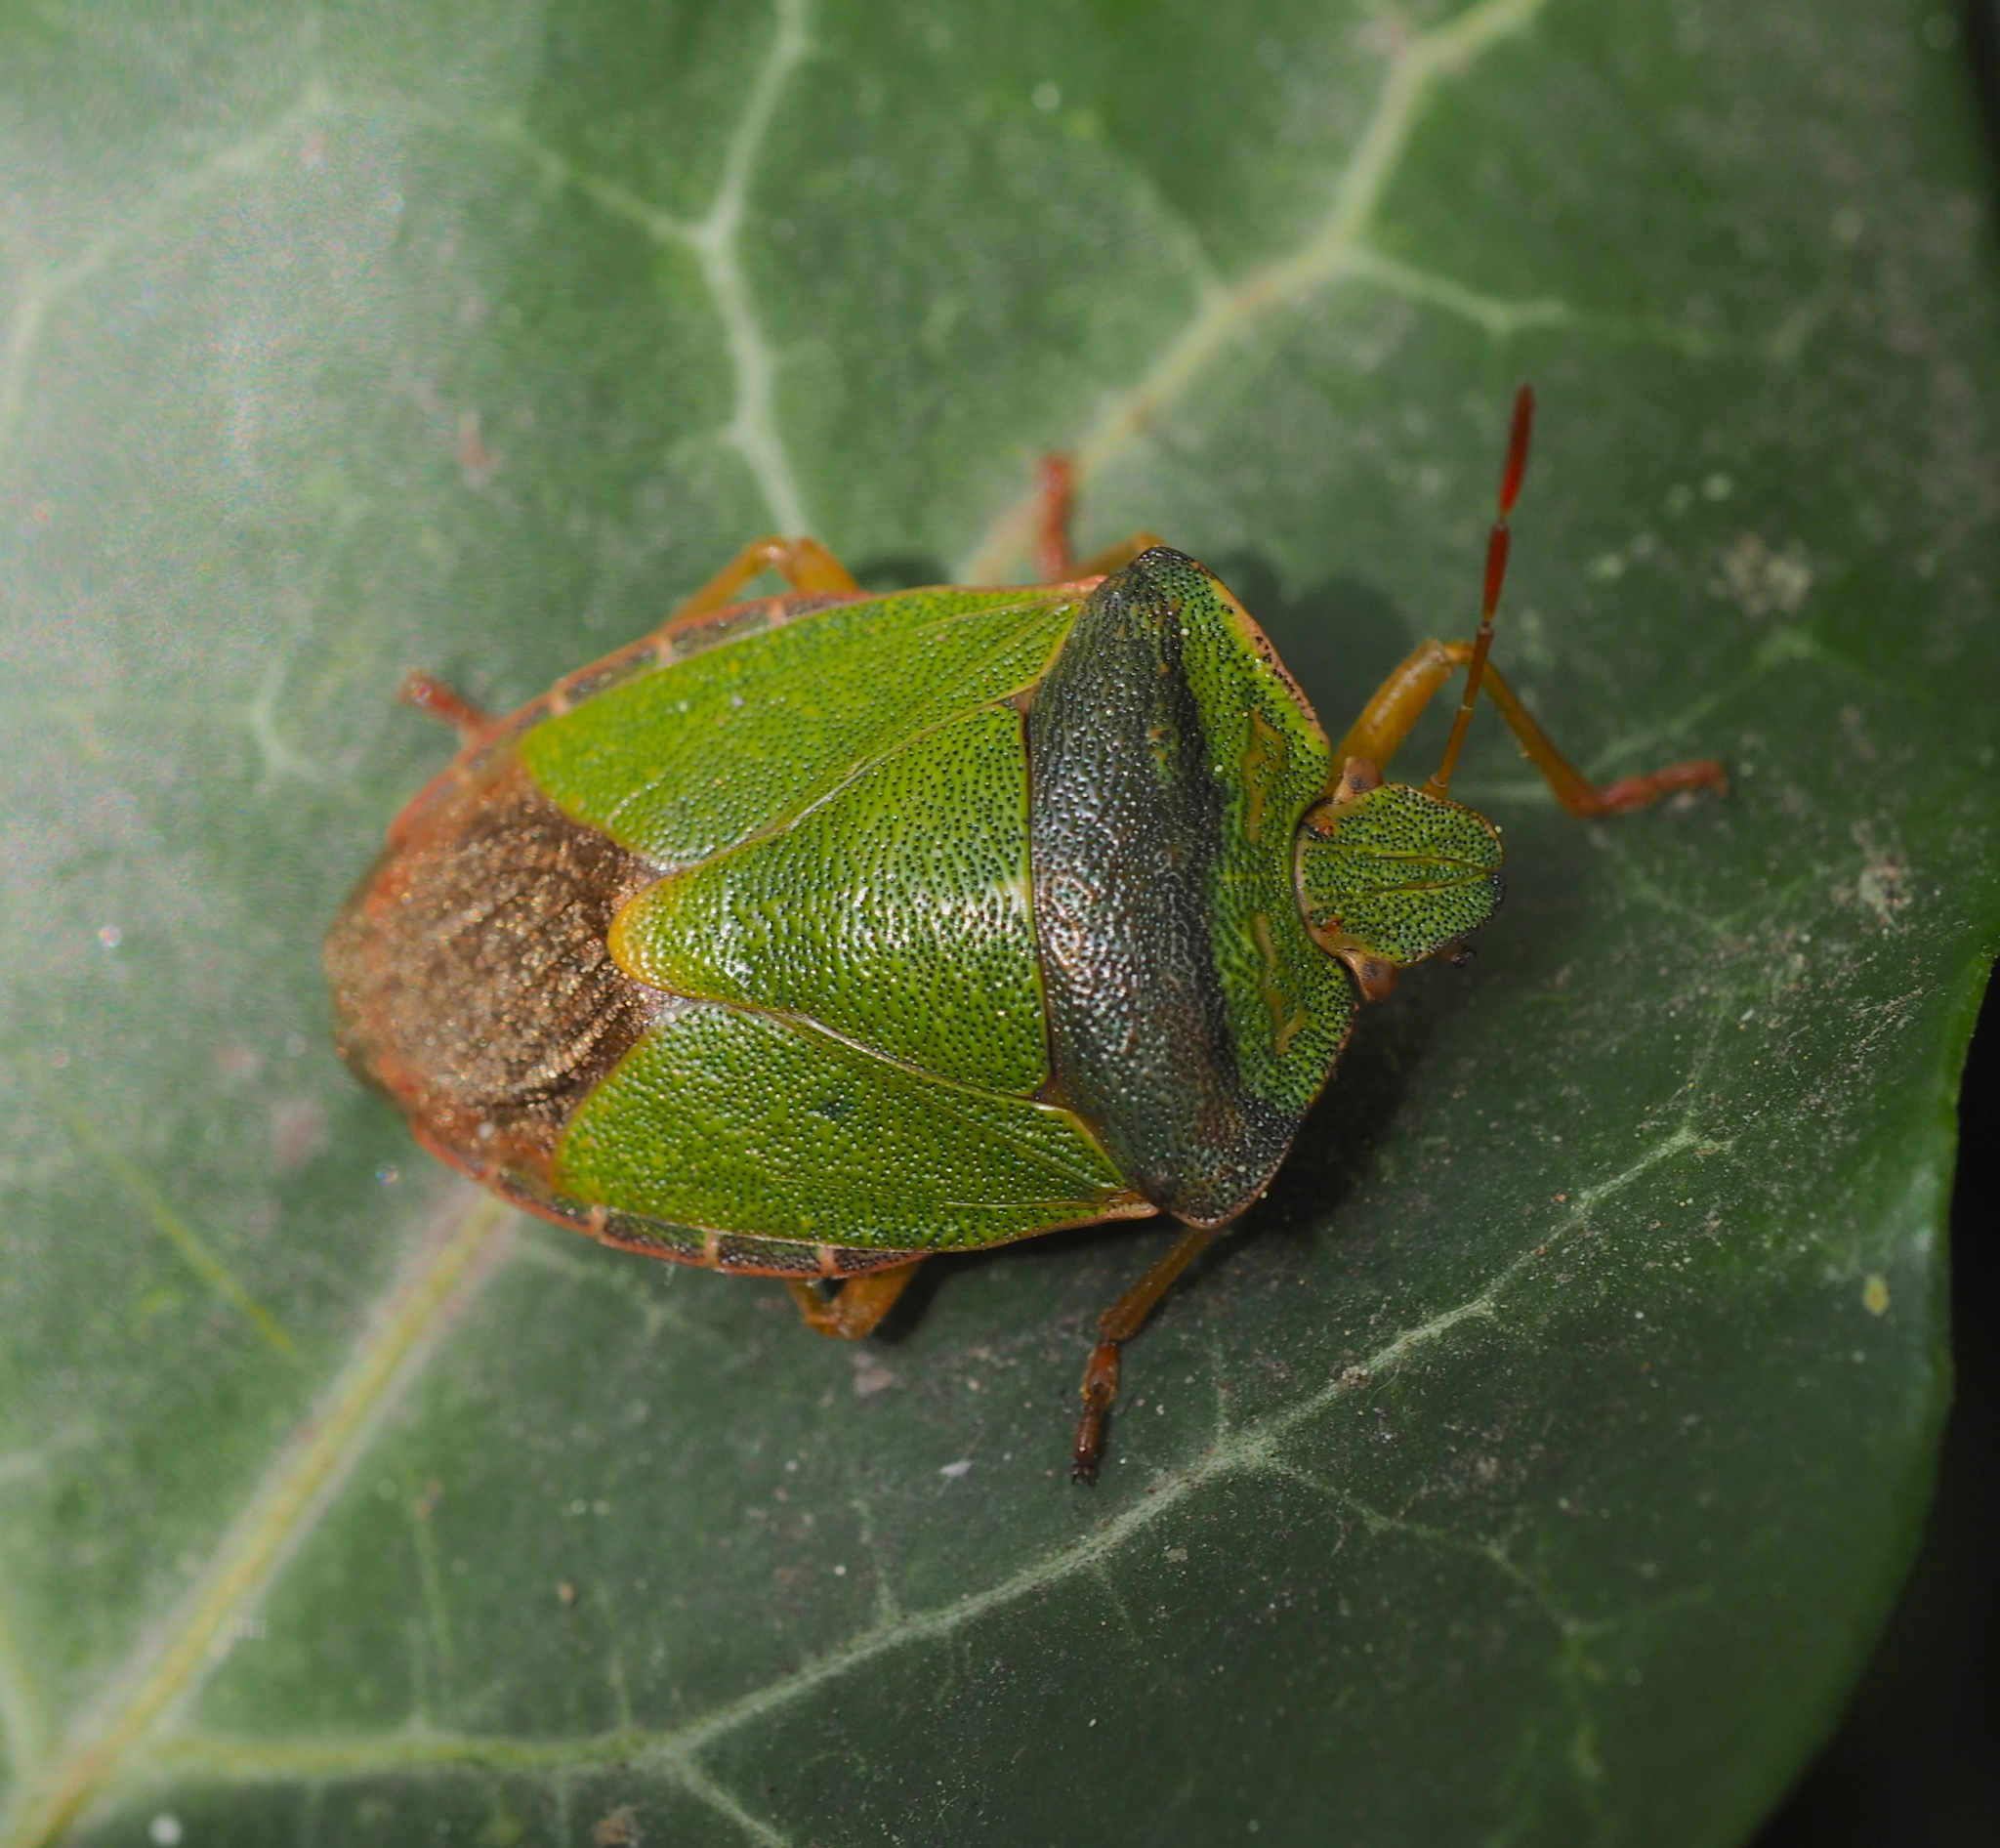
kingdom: Animalia
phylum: Arthropoda
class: Insecta
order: Hemiptera
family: Pentatomidae
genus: Palomena
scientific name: Palomena prasina
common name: Green shieldbug
